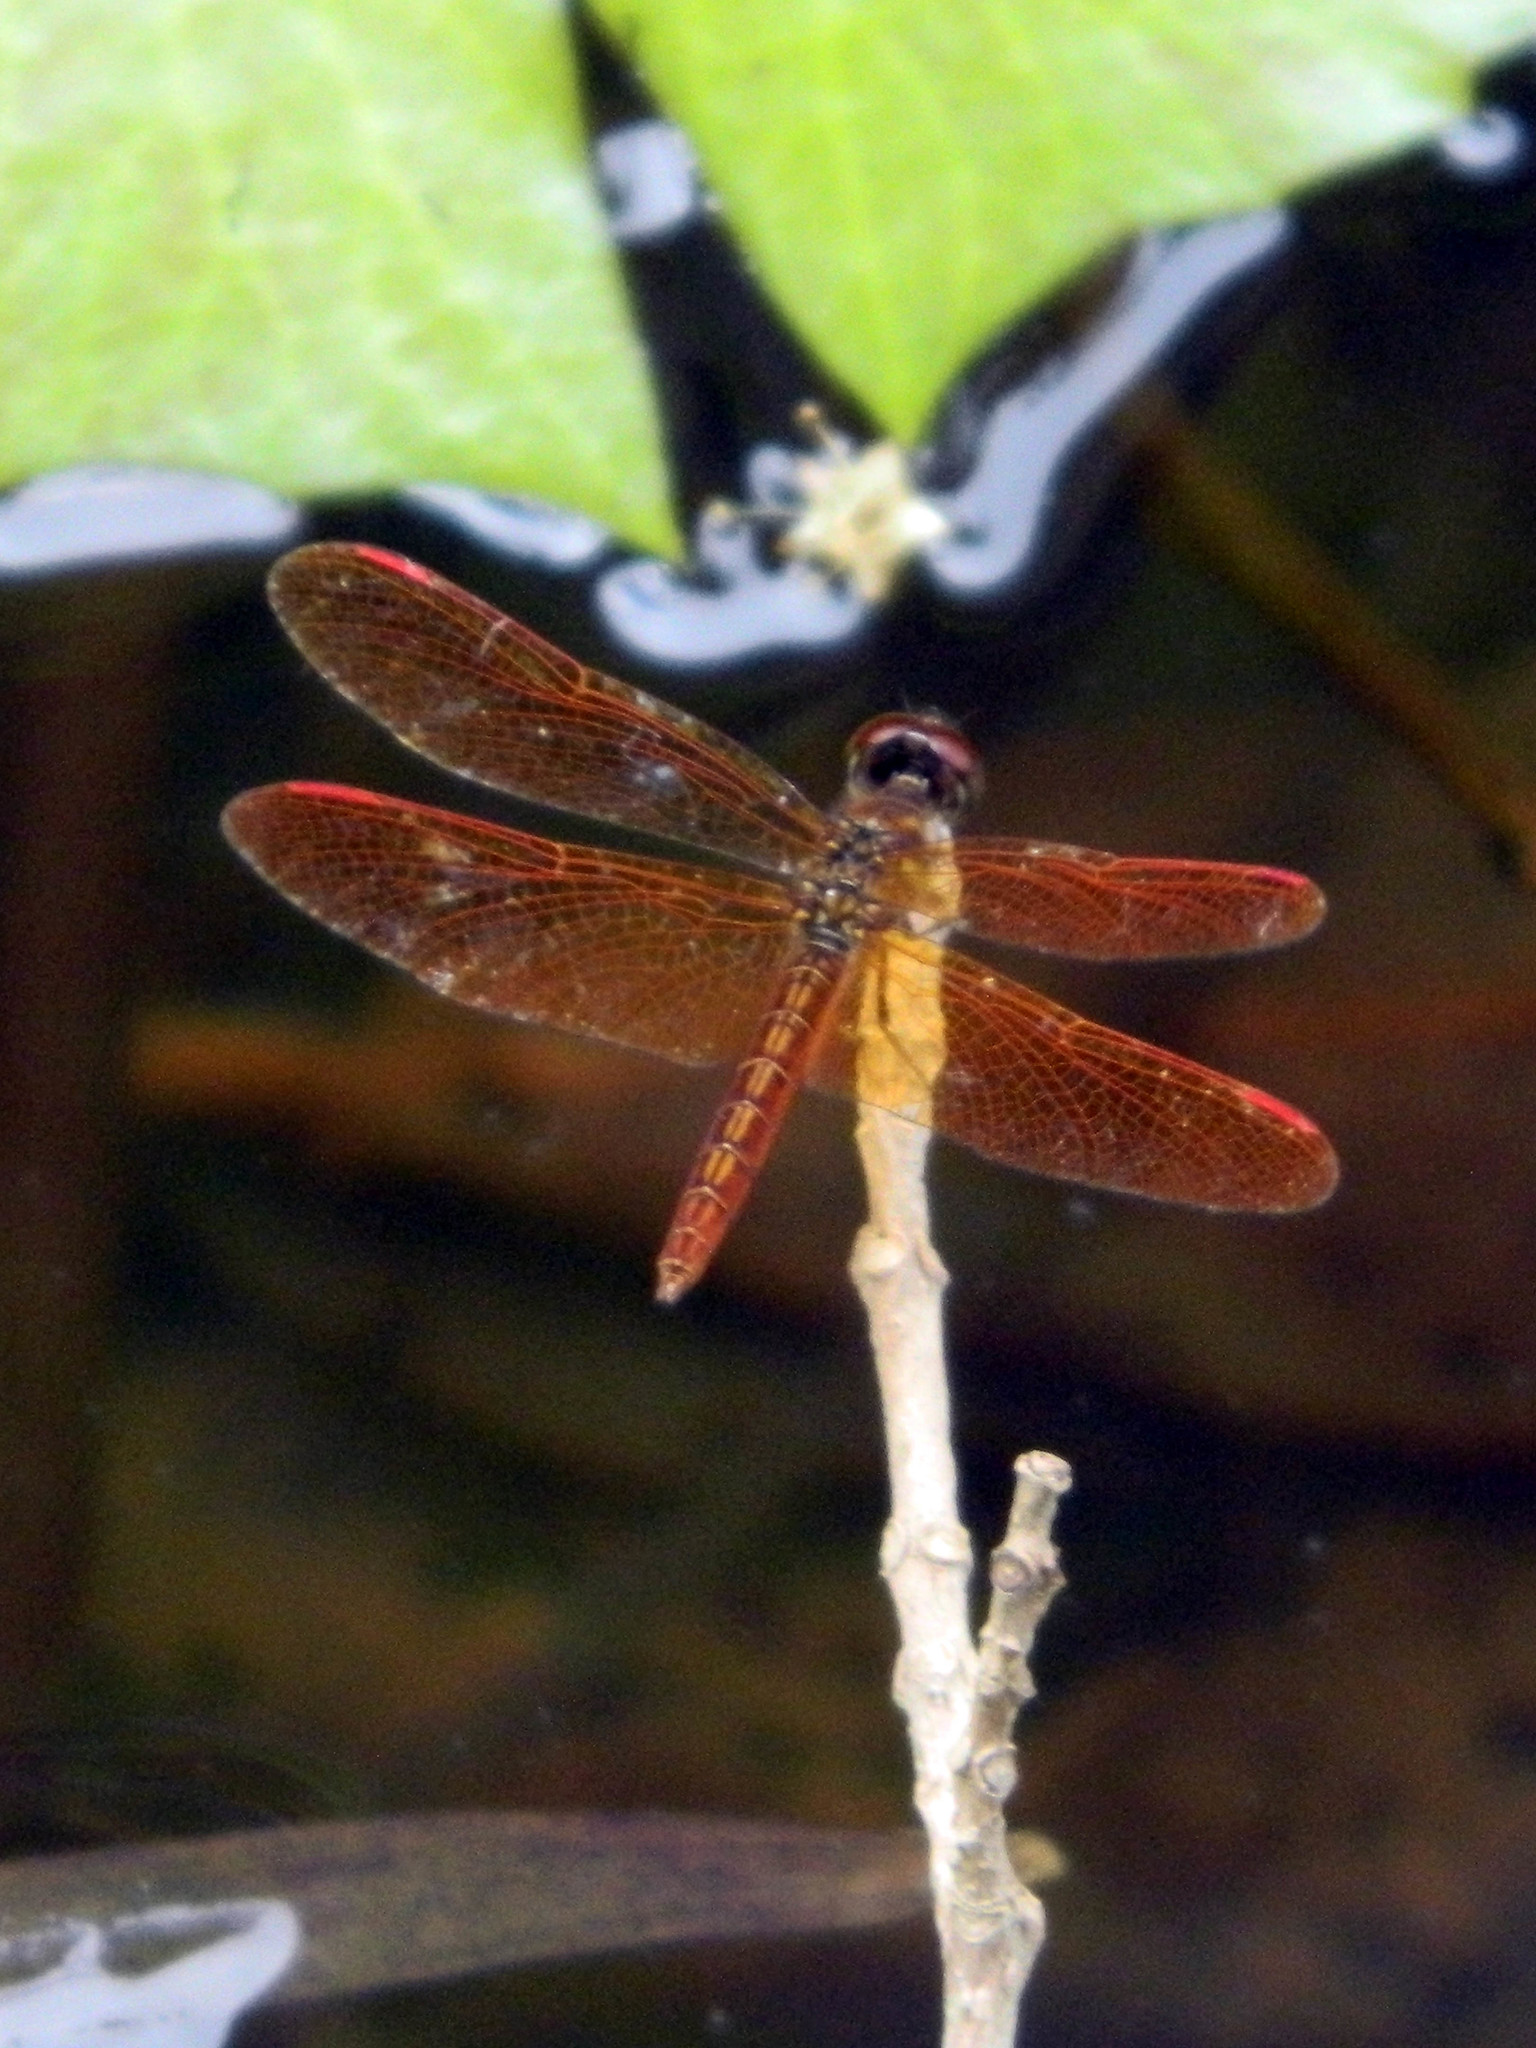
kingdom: Animalia
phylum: Arthropoda
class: Insecta
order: Odonata
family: Libellulidae
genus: Perithemis
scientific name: Perithemis domitia
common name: Slough amberwing
